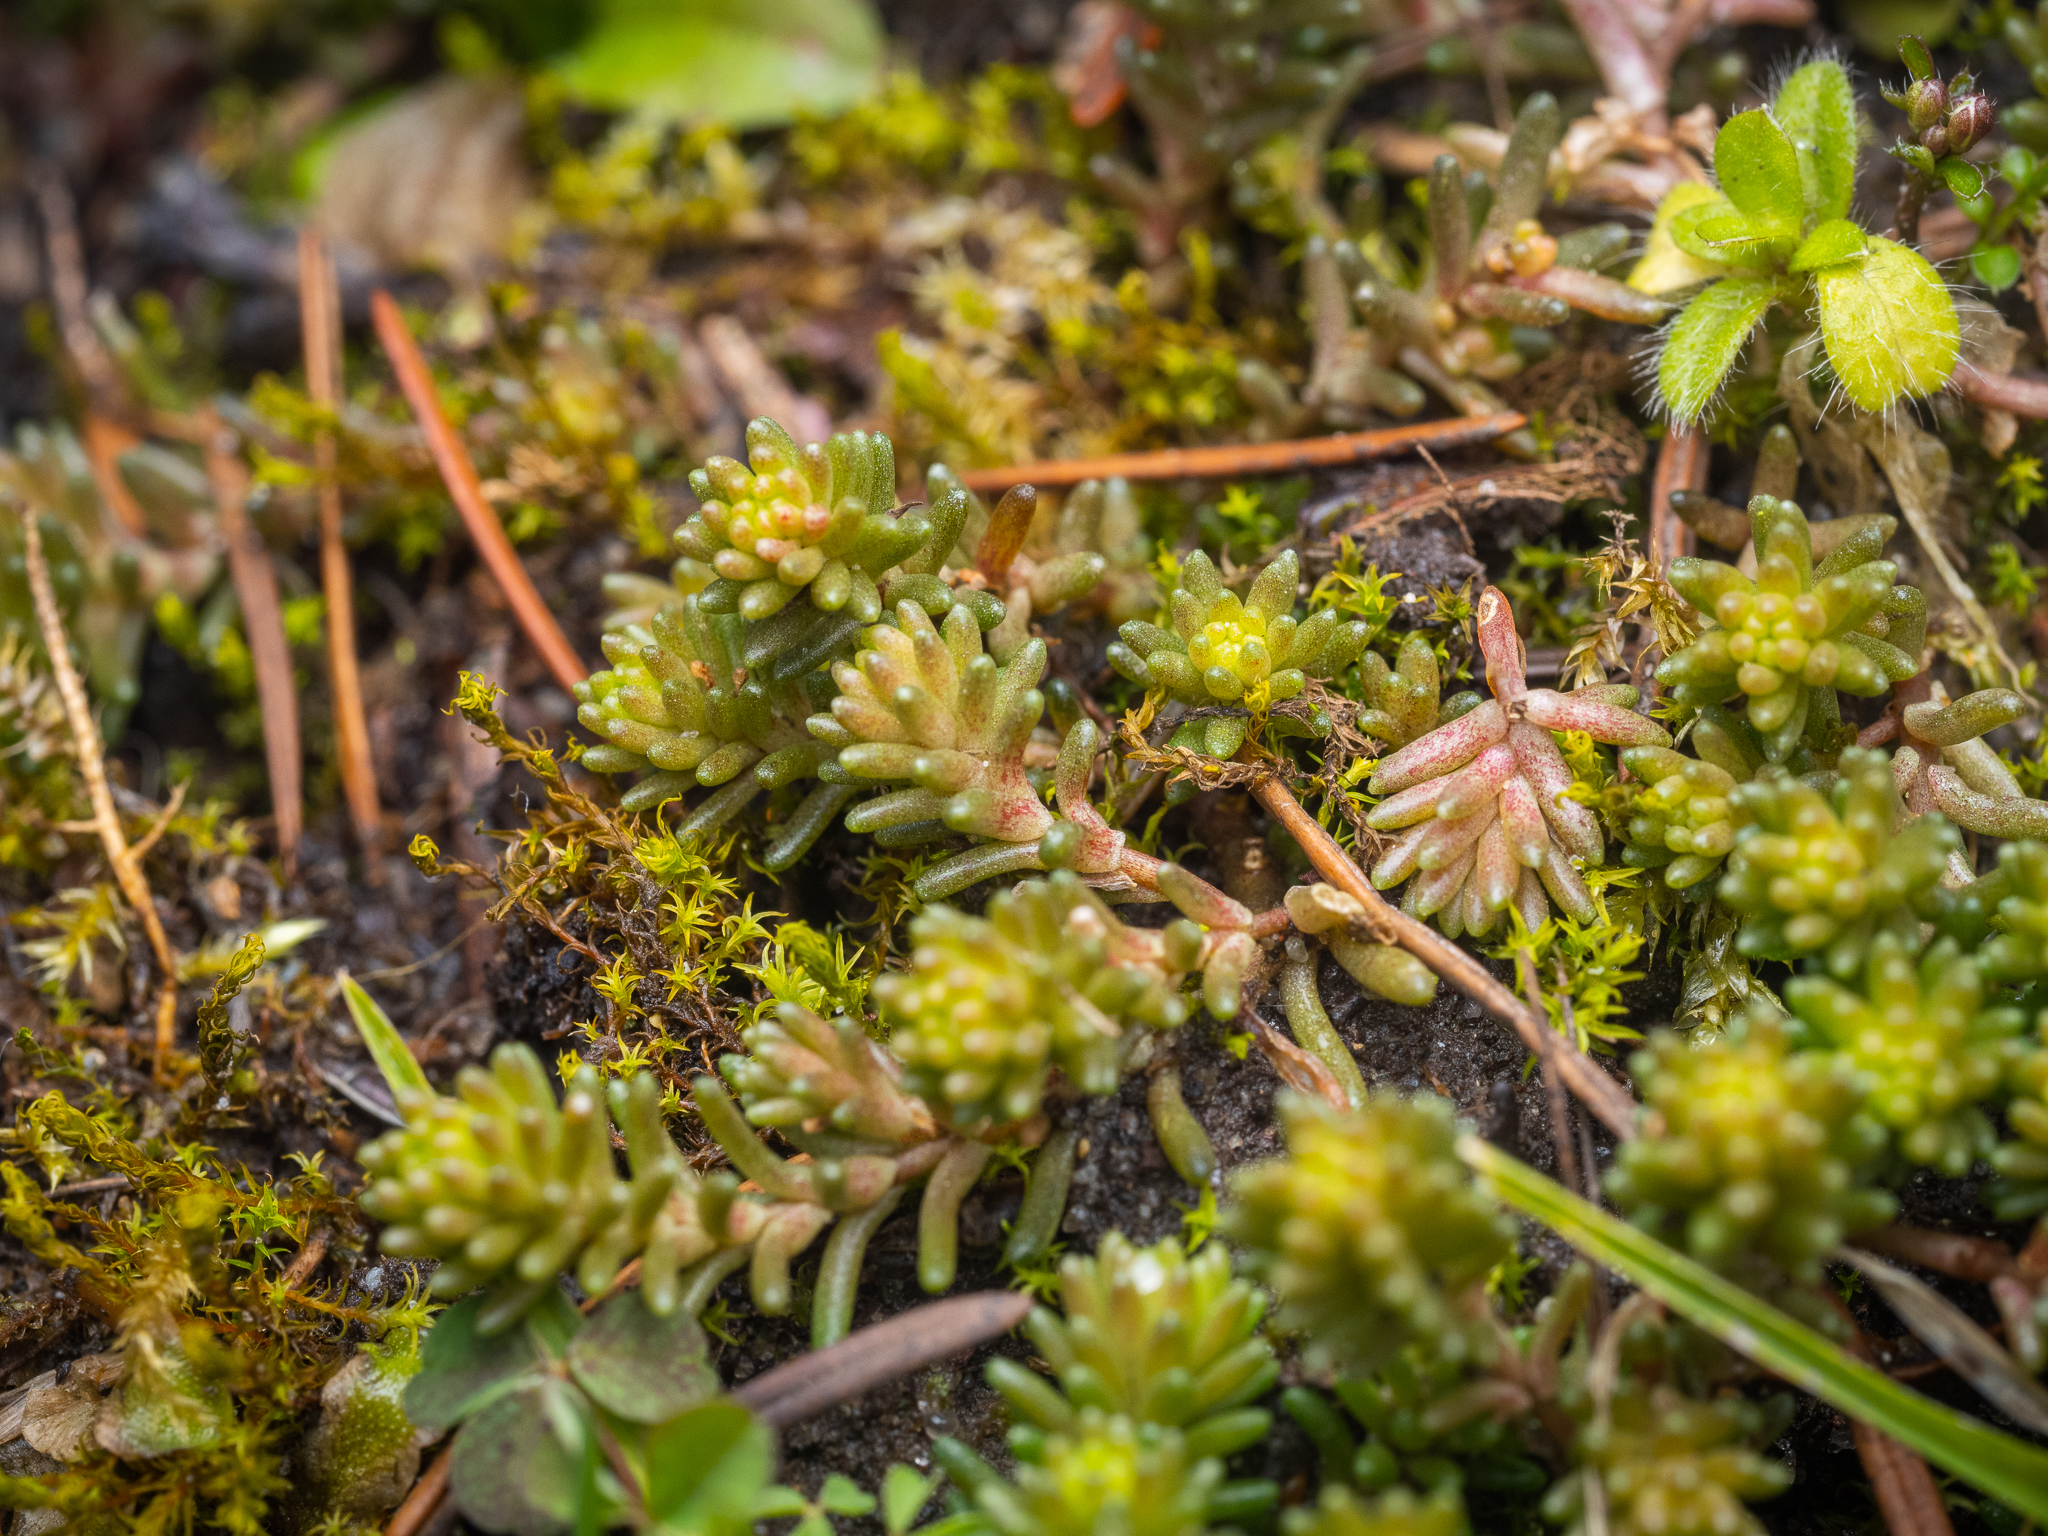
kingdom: Plantae
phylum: Tracheophyta
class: Magnoliopsida
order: Saxifragales
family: Crassulaceae
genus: Sedum
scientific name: Sedum sexangulare
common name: Tasteless stonecrop
